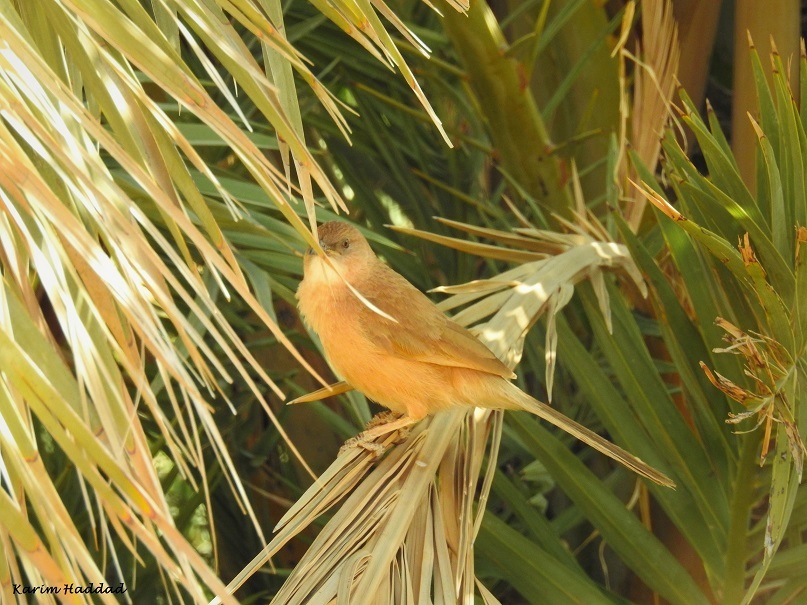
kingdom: Animalia
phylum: Chordata
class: Aves
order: Passeriformes
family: Leiothrichidae
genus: Turdoides
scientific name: Turdoides fulva
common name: Fulvous babbler
